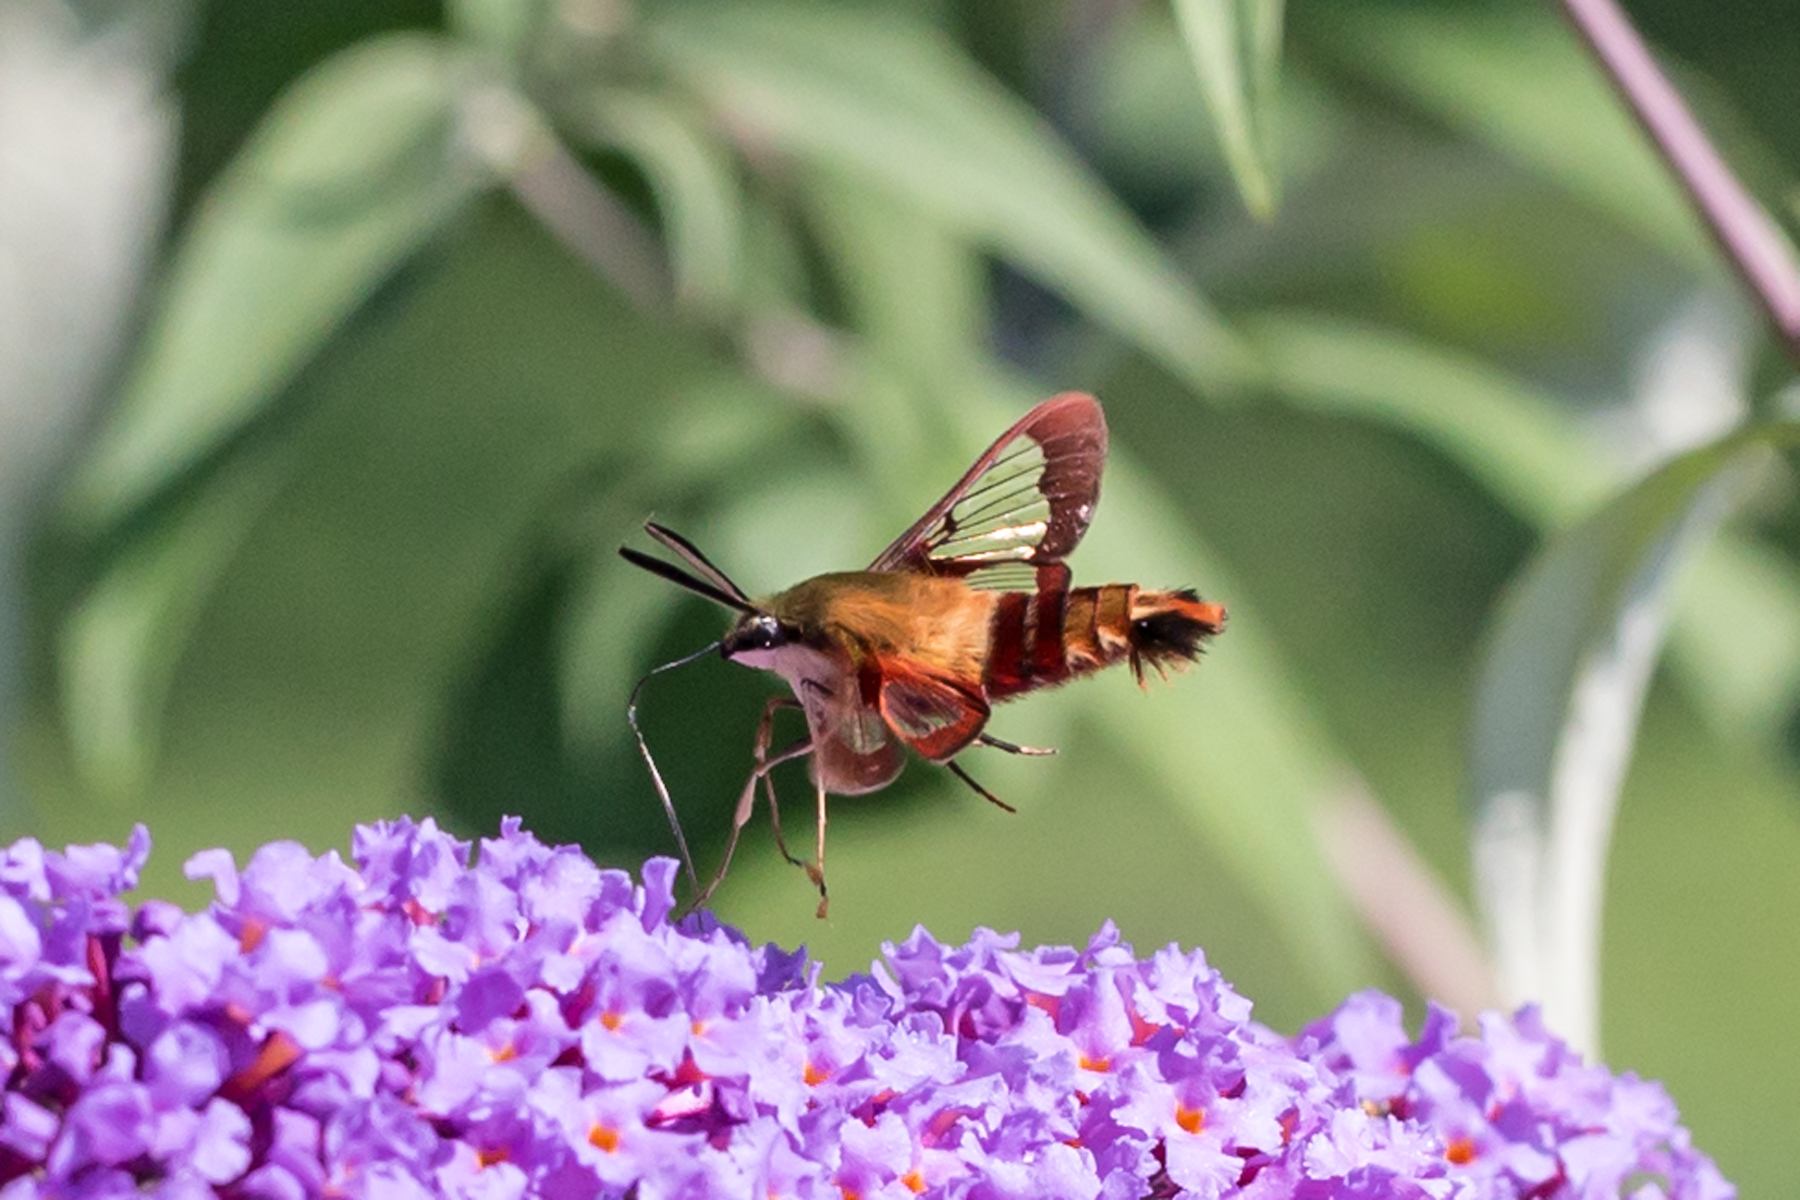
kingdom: Animalia
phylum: Arthropoda
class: Insecta
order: Lepidoptera
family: Sphingidae
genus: Hemaris
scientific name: Hemaris thysbe
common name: Common clear-wing
